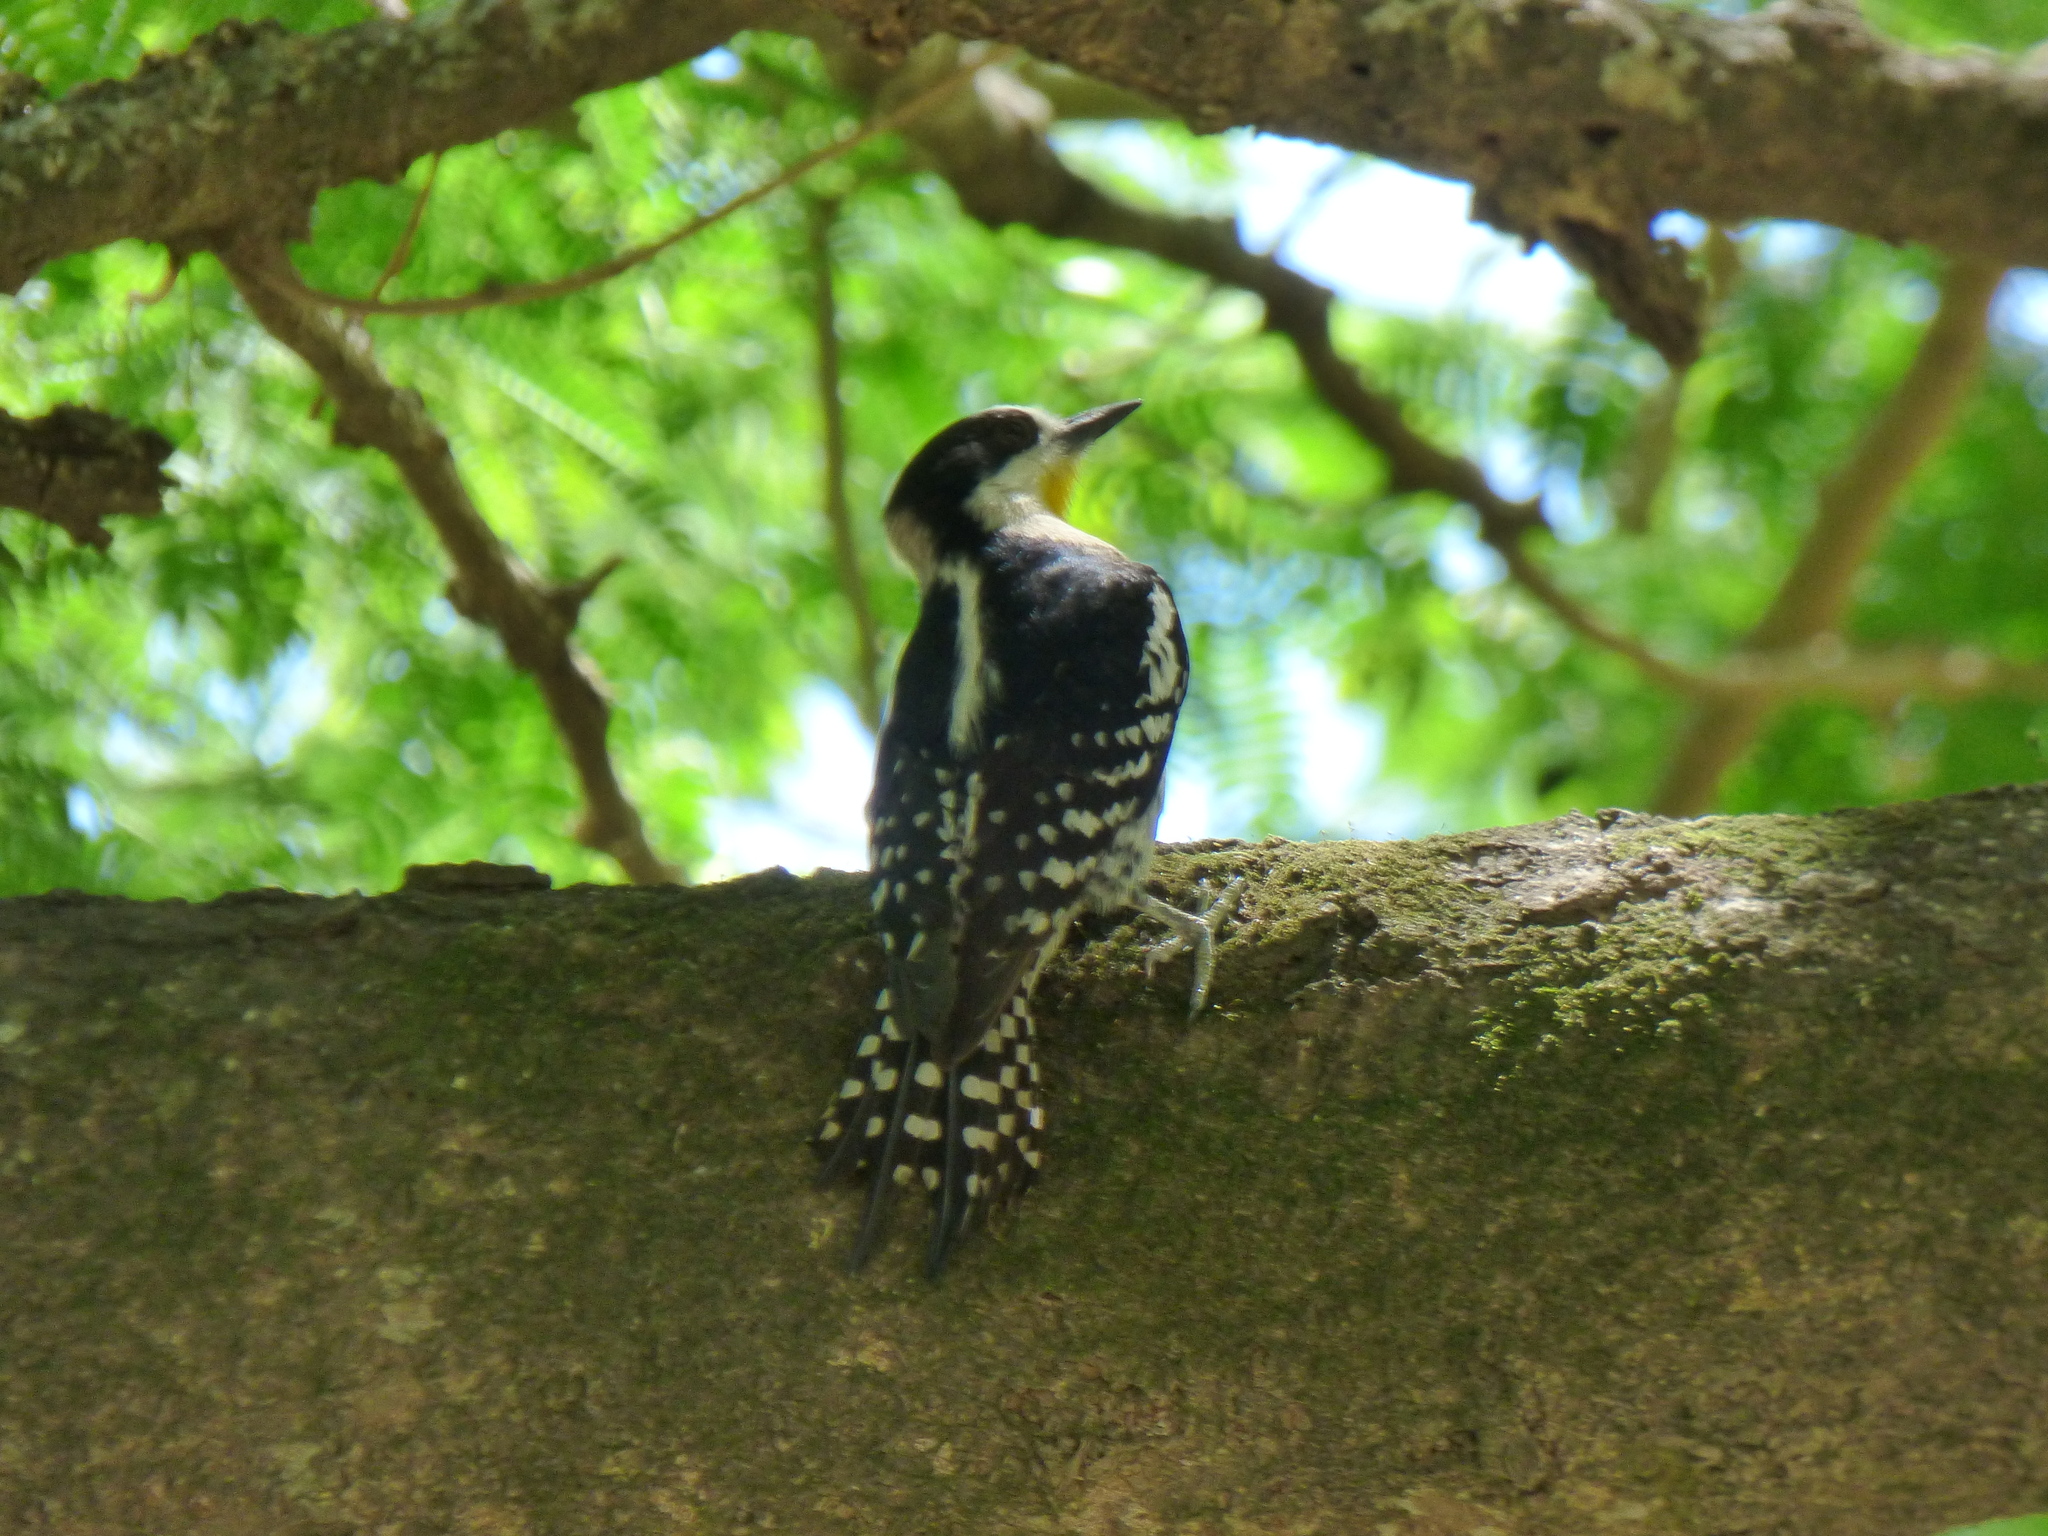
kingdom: Animalia
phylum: Chordata
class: Aves
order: Piciformes
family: Picidae
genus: Melanerpes
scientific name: Melanerpes cactorum
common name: White-fronted woodpecker
